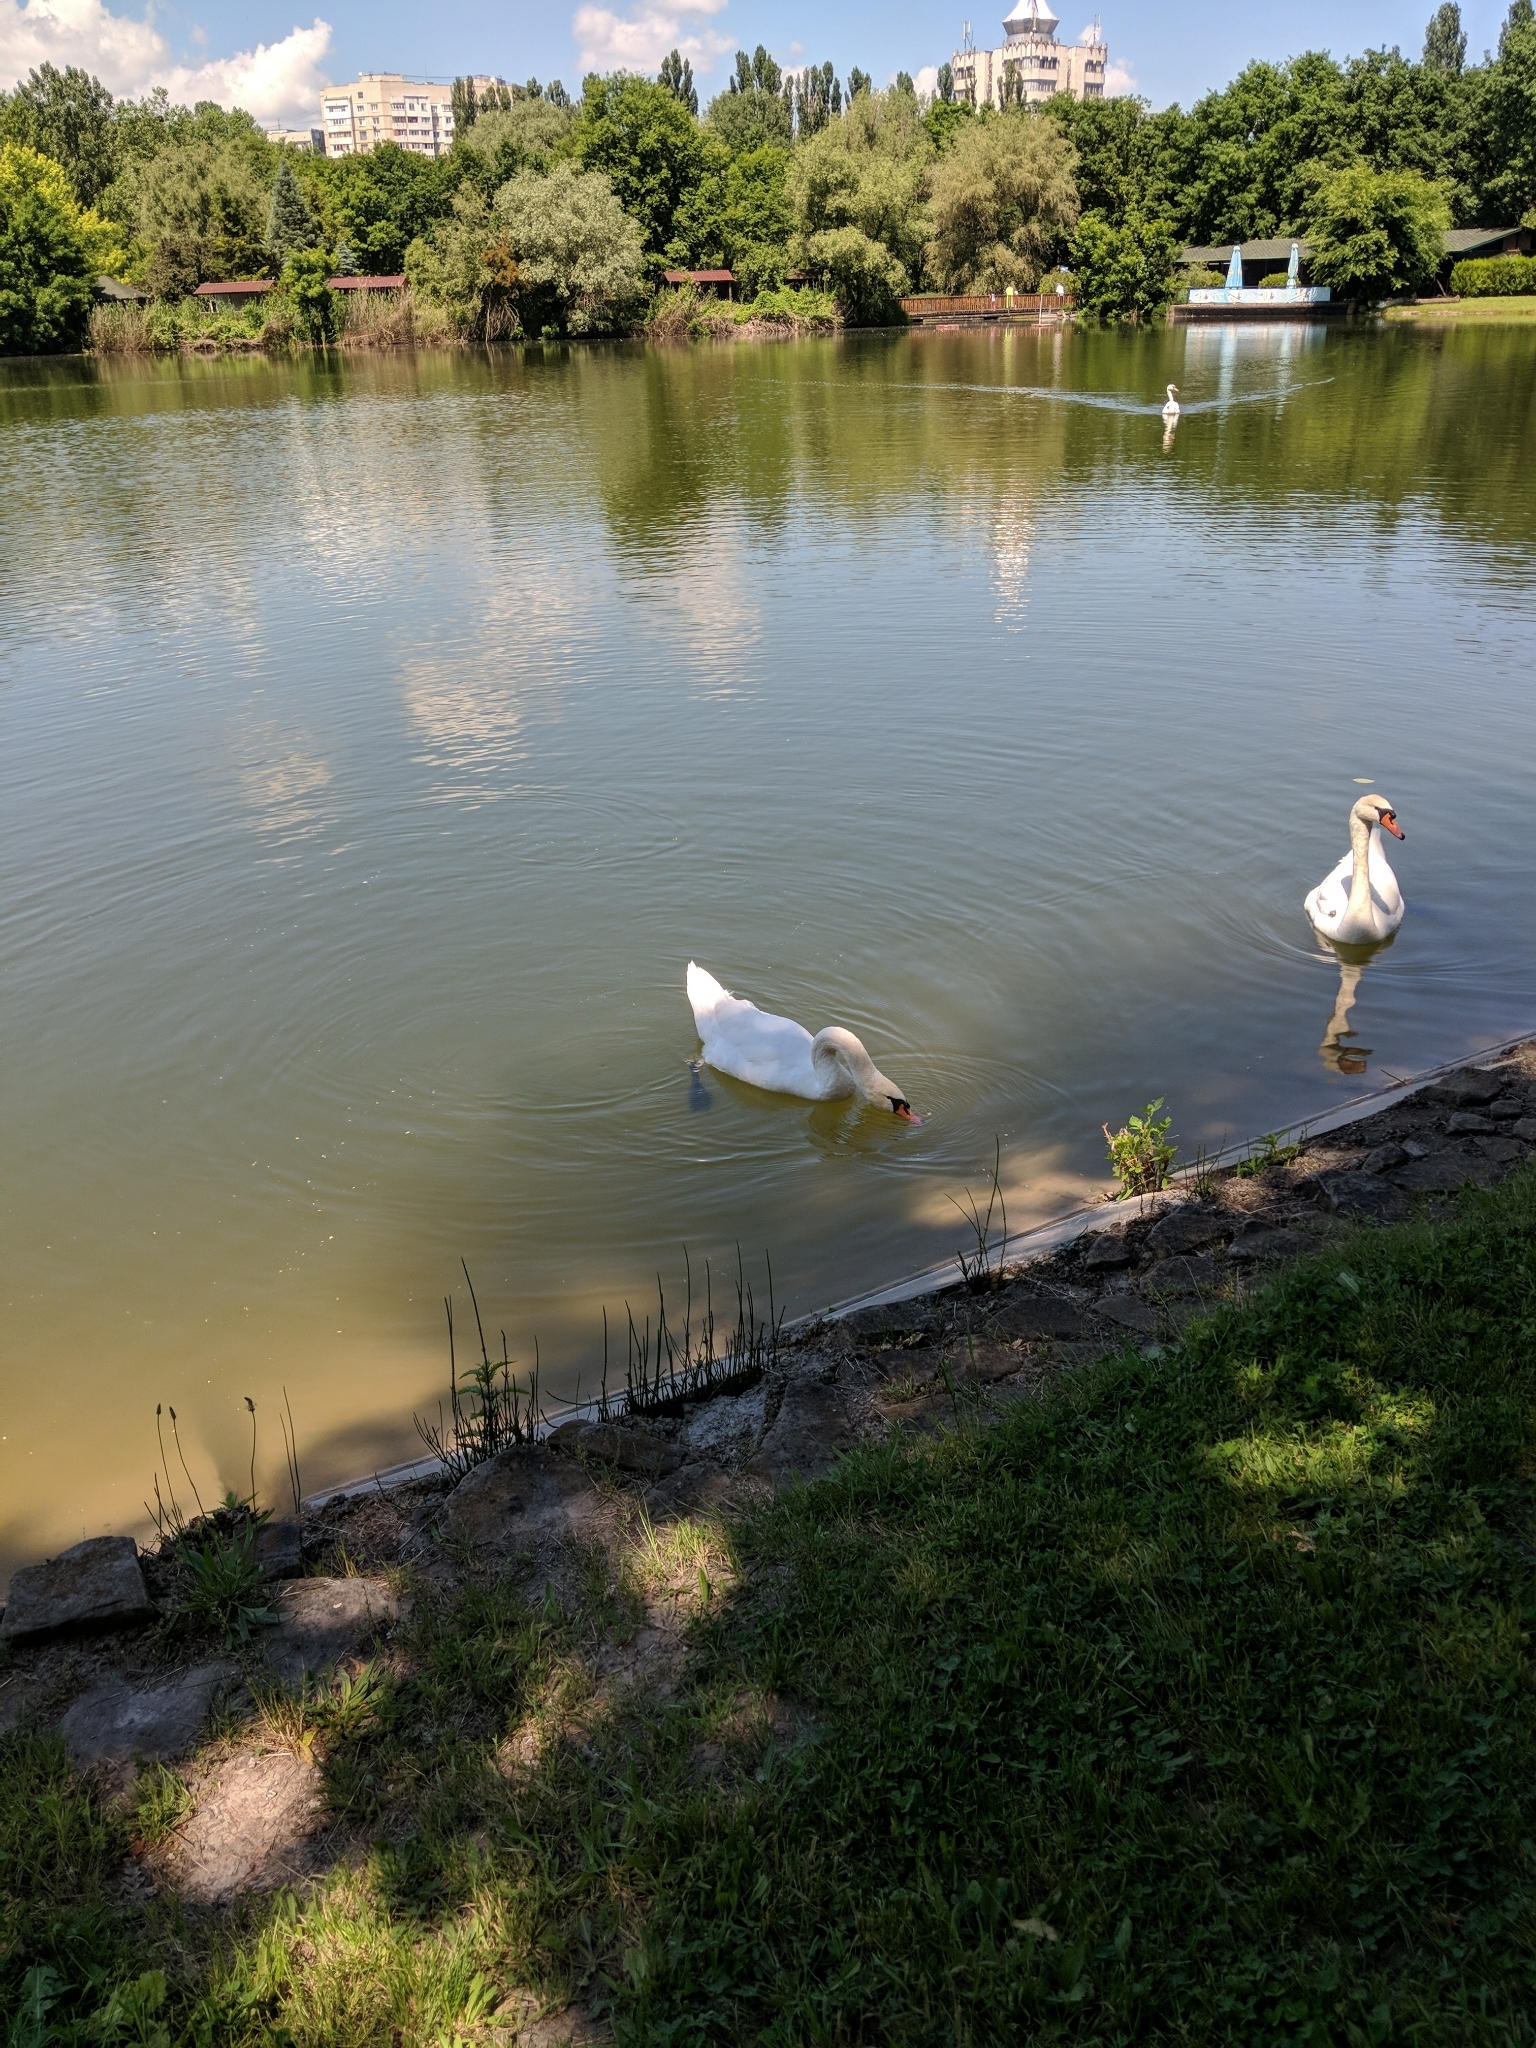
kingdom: Animalia
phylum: Chordata
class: Aves
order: Anseriformes
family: Anatidae
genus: Cygnus
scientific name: Cygnus olor
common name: Mute swan
